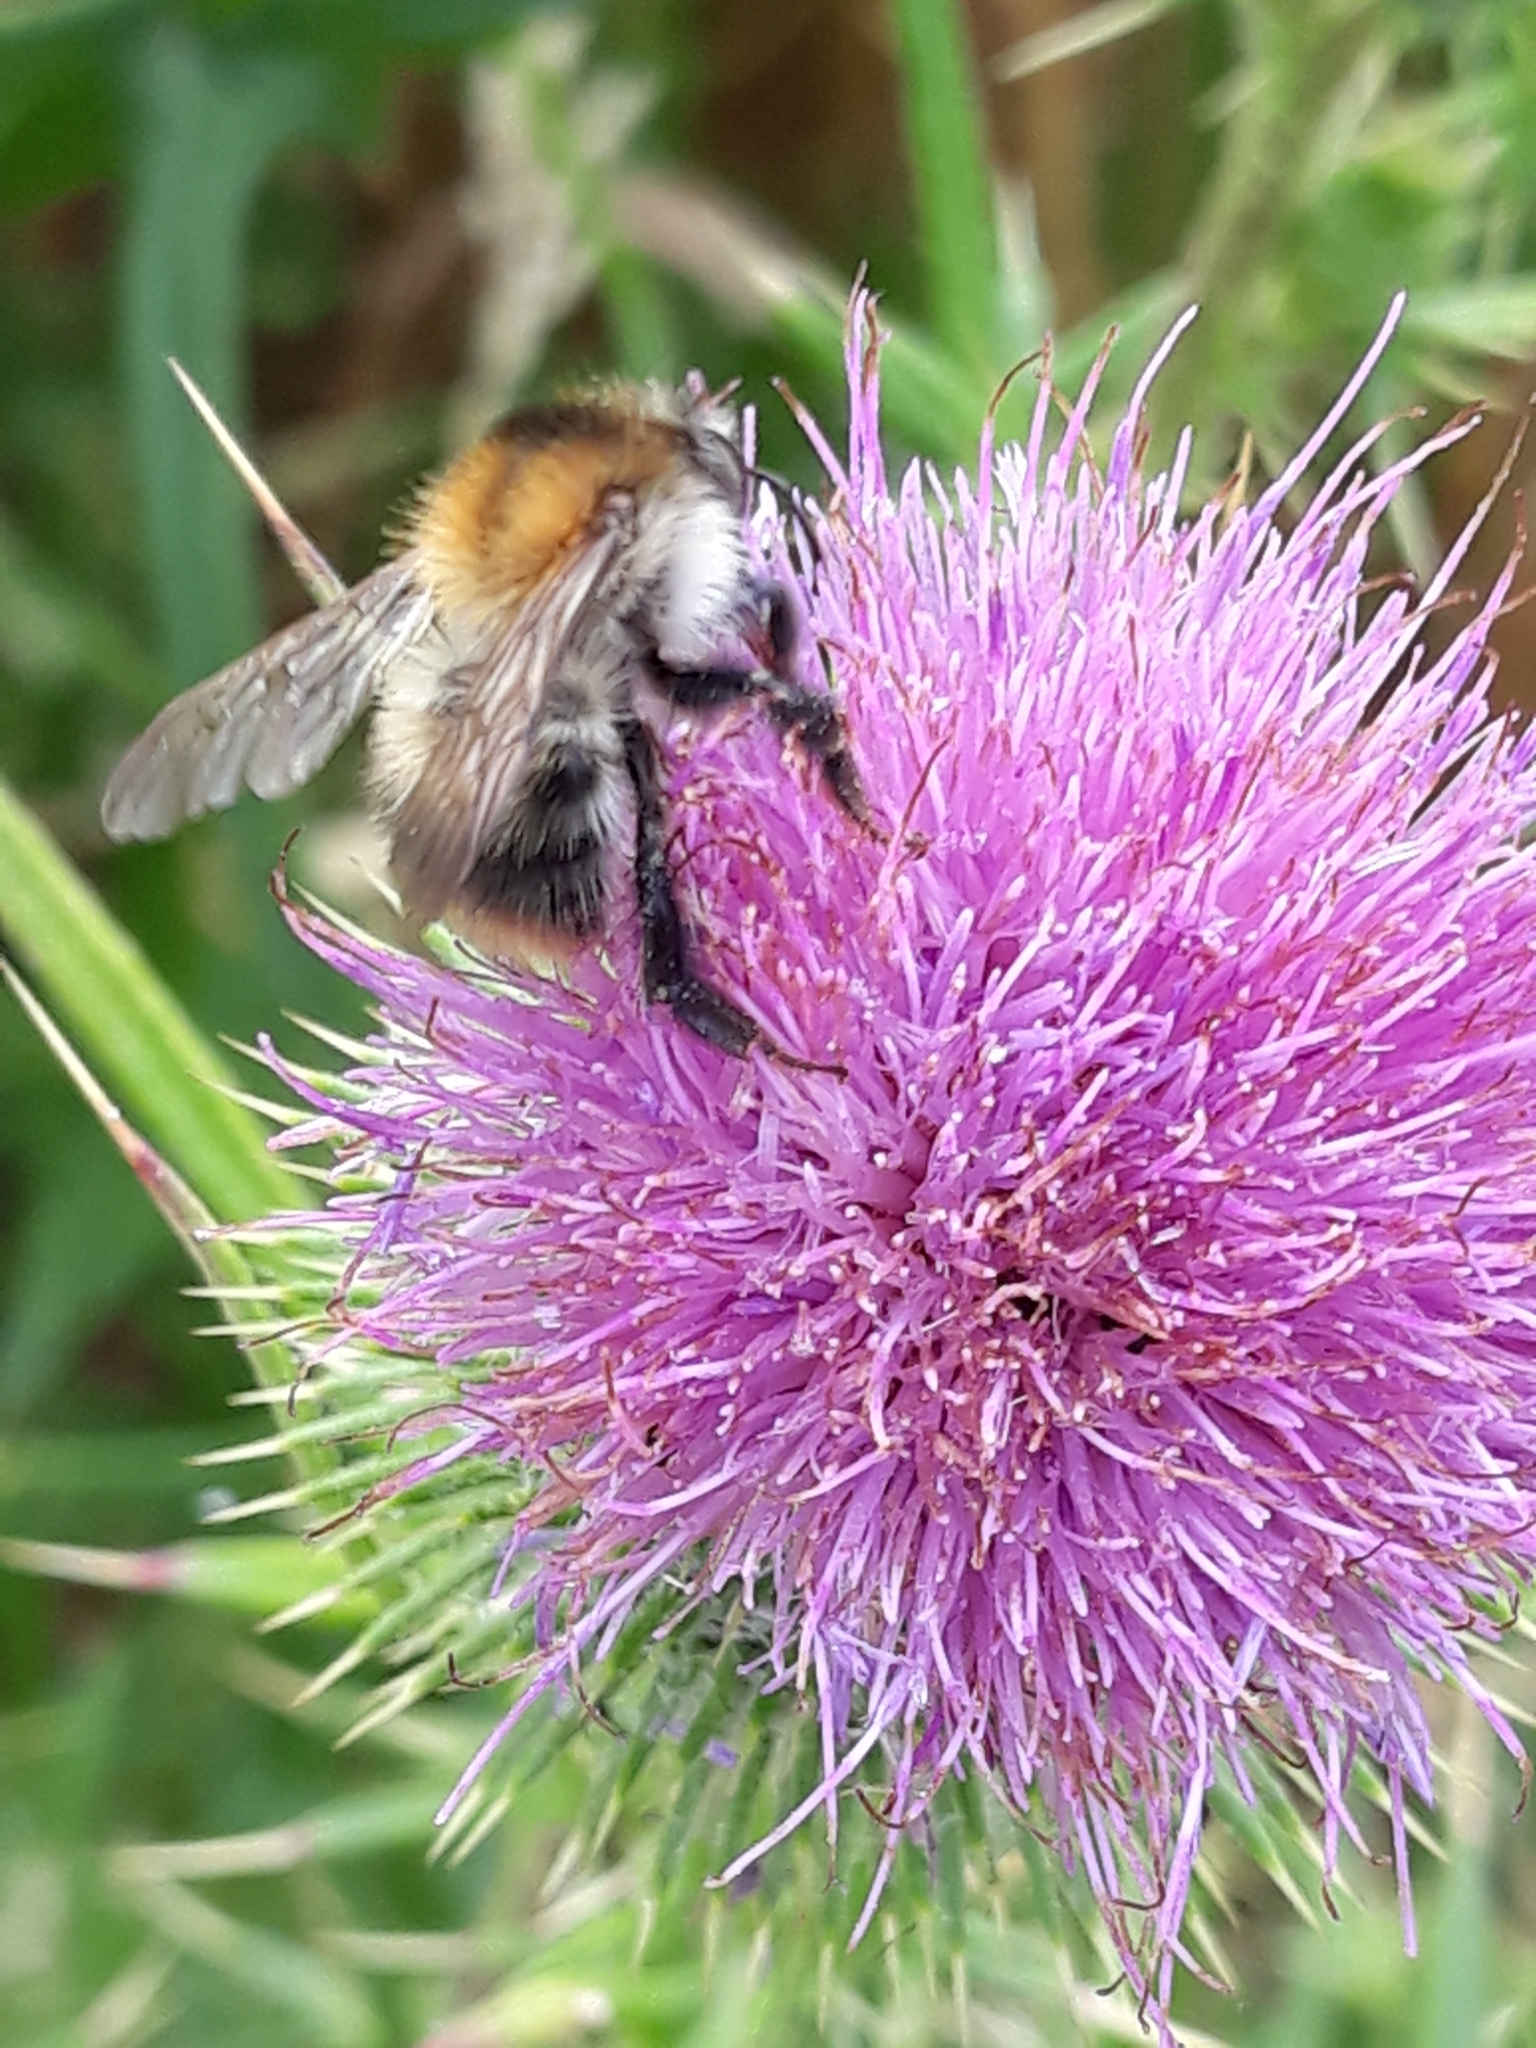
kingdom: Animalia
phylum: Arthropoda
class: Insecta
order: Hymenoptera
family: Apidae
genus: Bombus
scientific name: Bombus pascuorum
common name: Common carder bee
